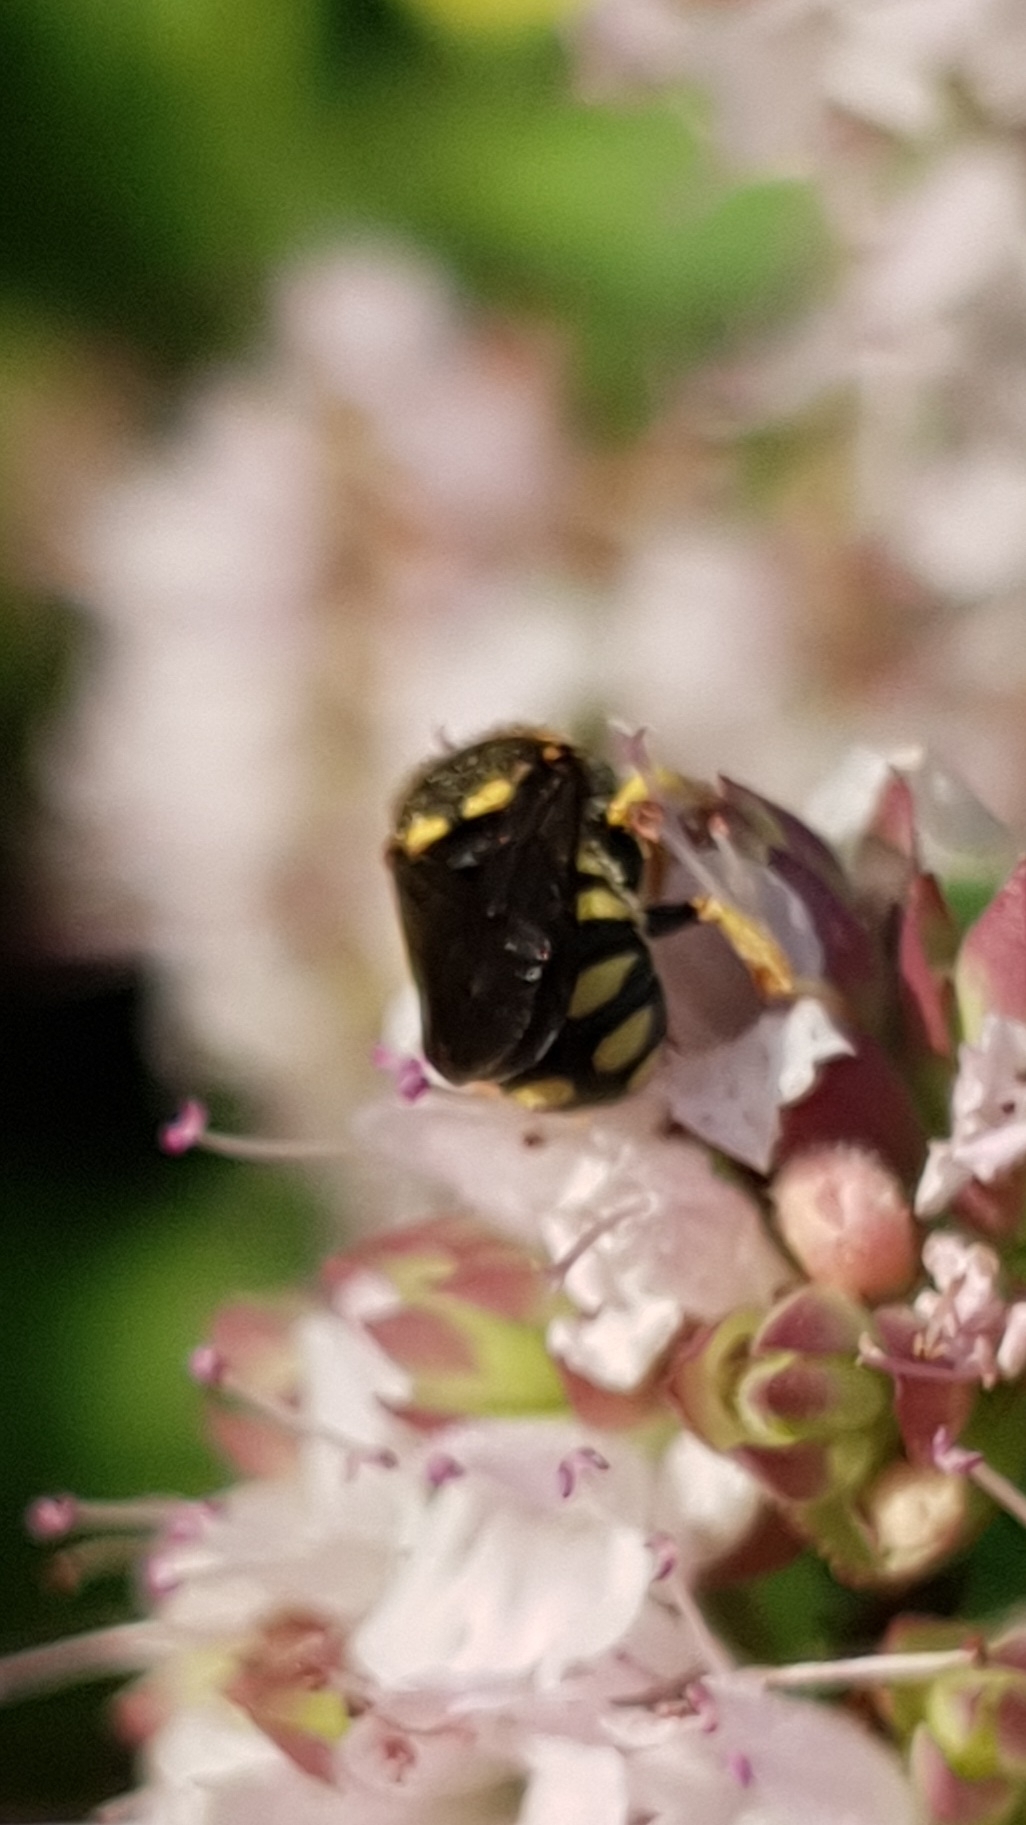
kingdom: Animalia
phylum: Arthropoda
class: Insecta
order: Hymenoptera
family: Megachilidae
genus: Anthidiellum
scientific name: Anthidiellum strigatum
